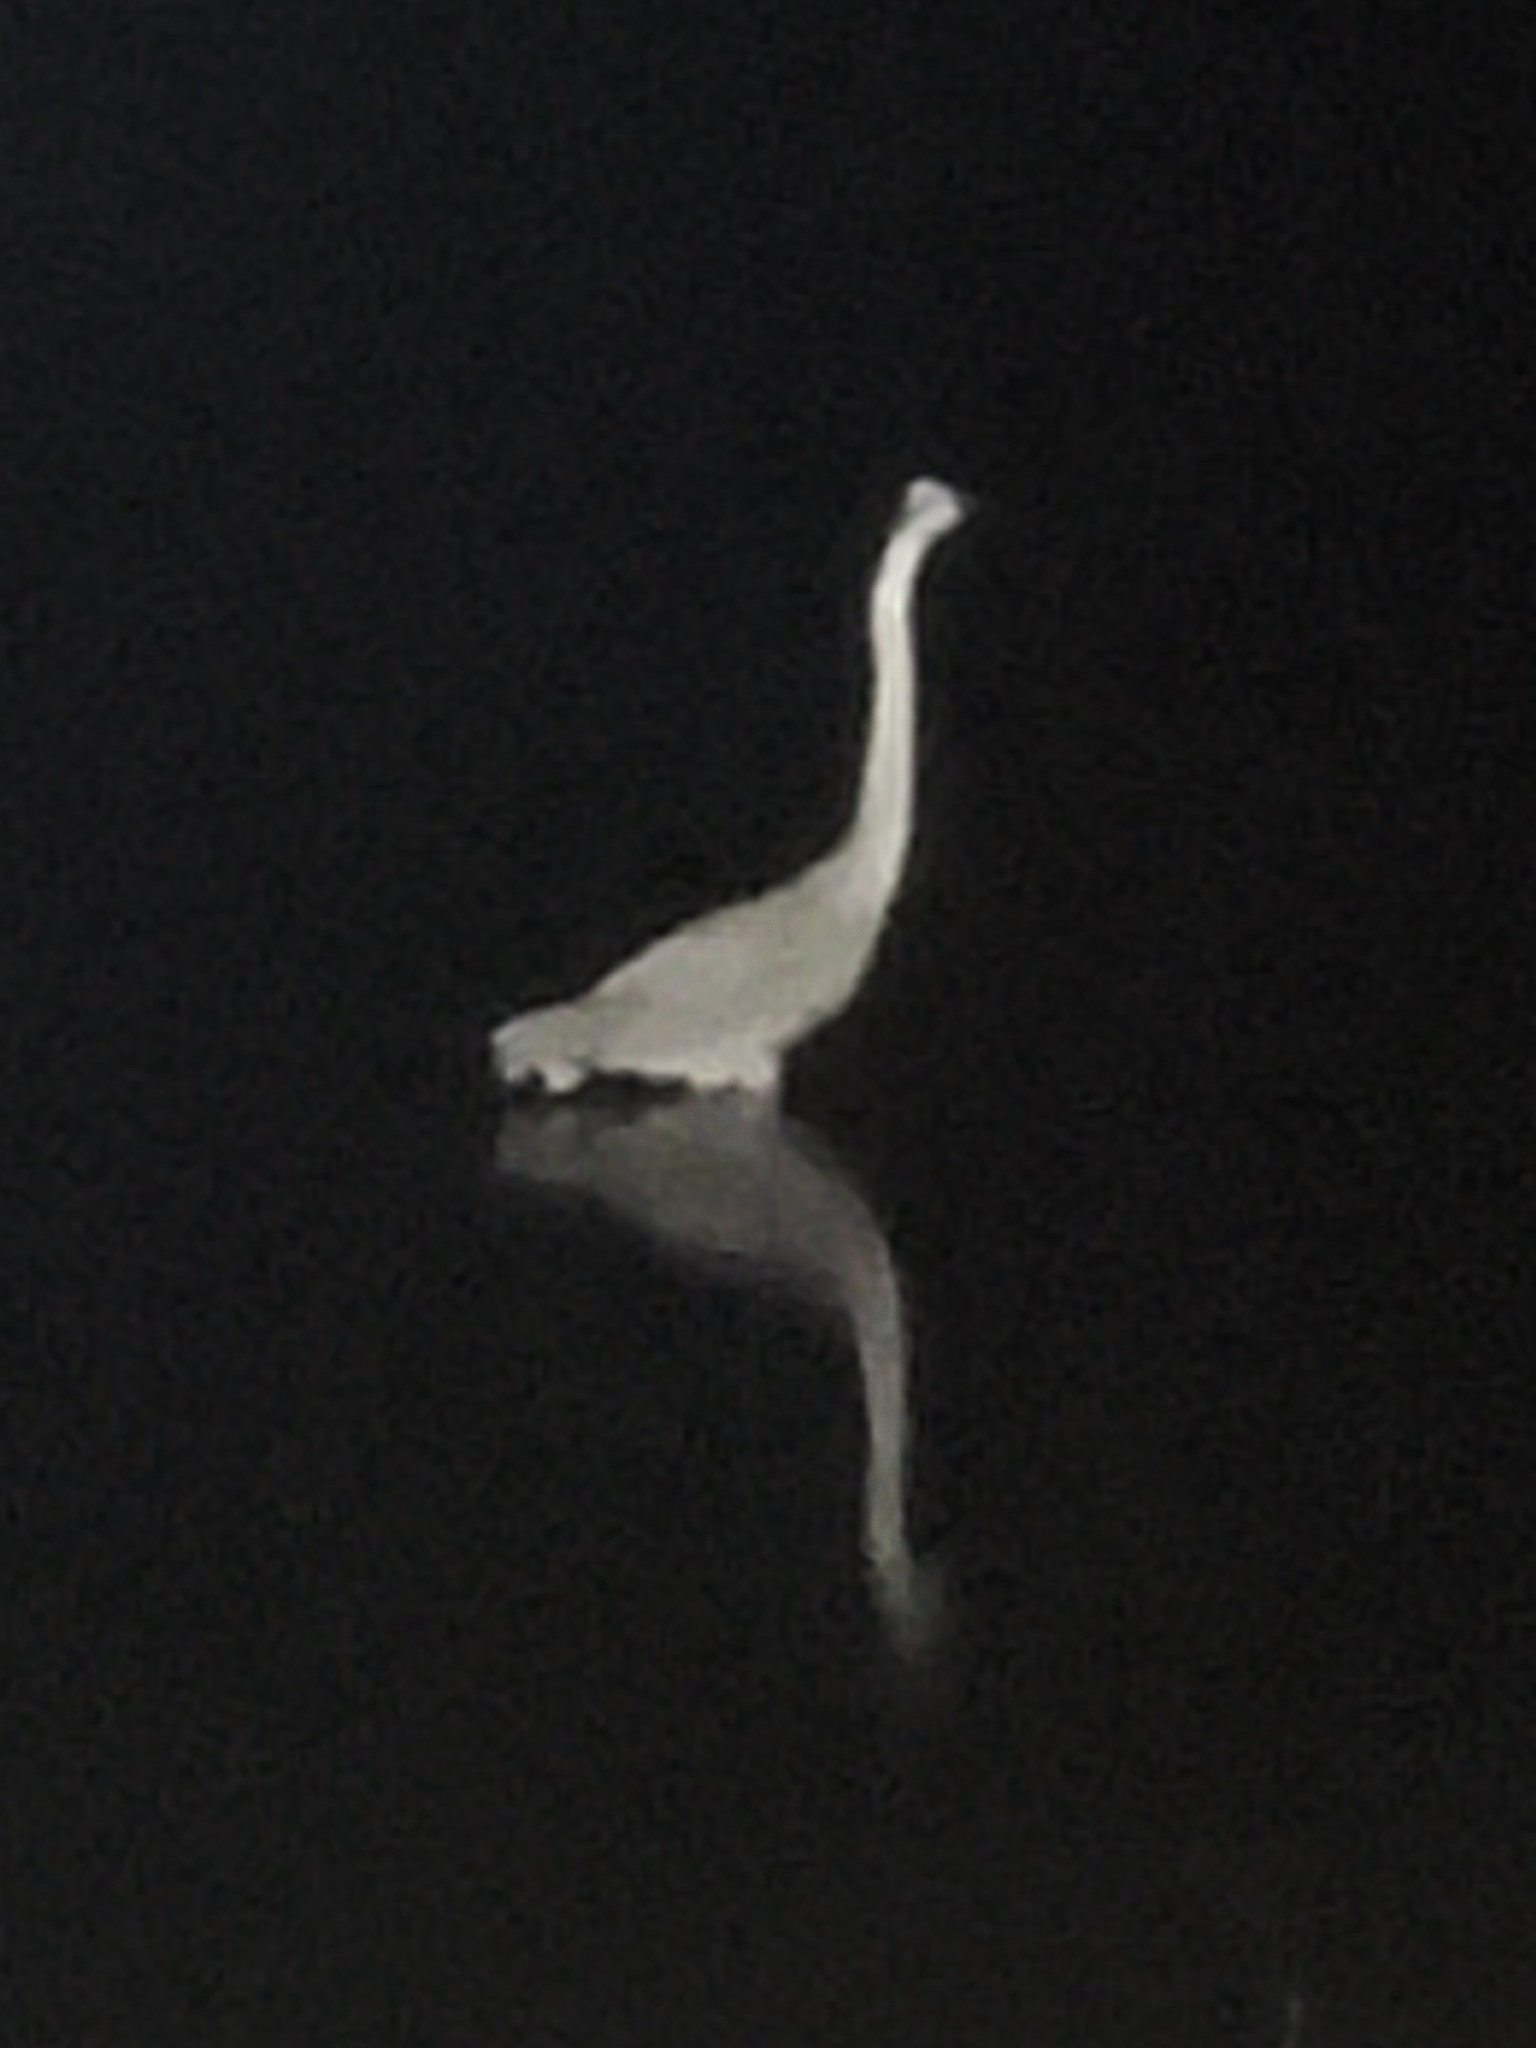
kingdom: Animalia
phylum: Chordata
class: Aves
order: Pelecaniformes
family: Ardeidae
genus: Ardea
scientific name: Ardea herodias
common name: Great blue heron
